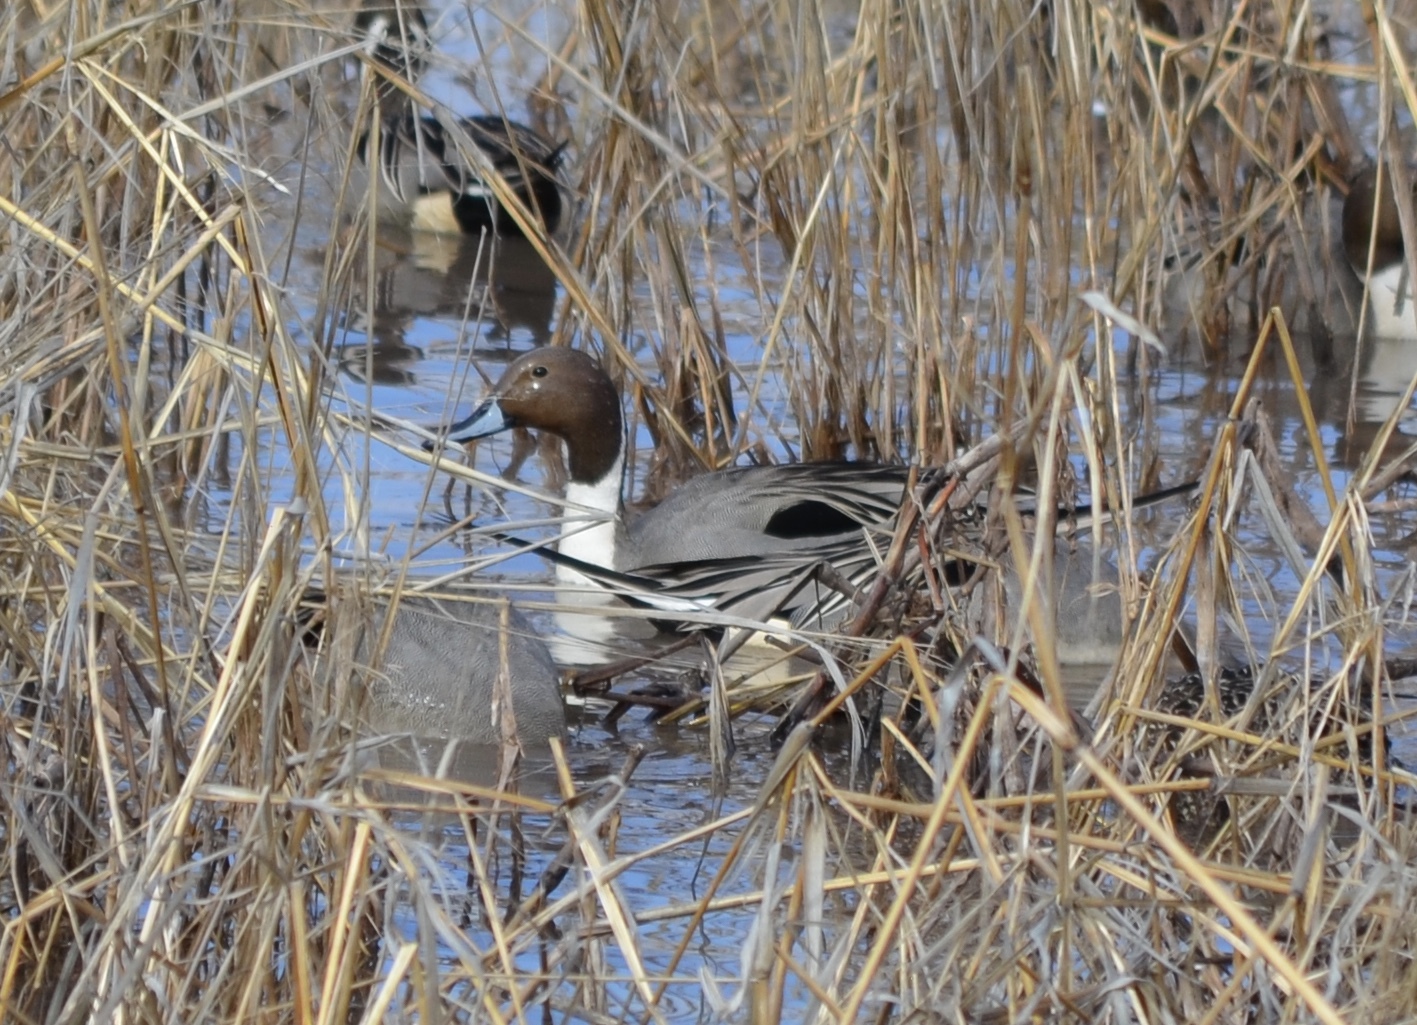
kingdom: Animalia
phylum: Chordata
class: Aves
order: Anseriformes
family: Anatidae
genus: Anas
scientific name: Anas acuta
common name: Northern pintail
